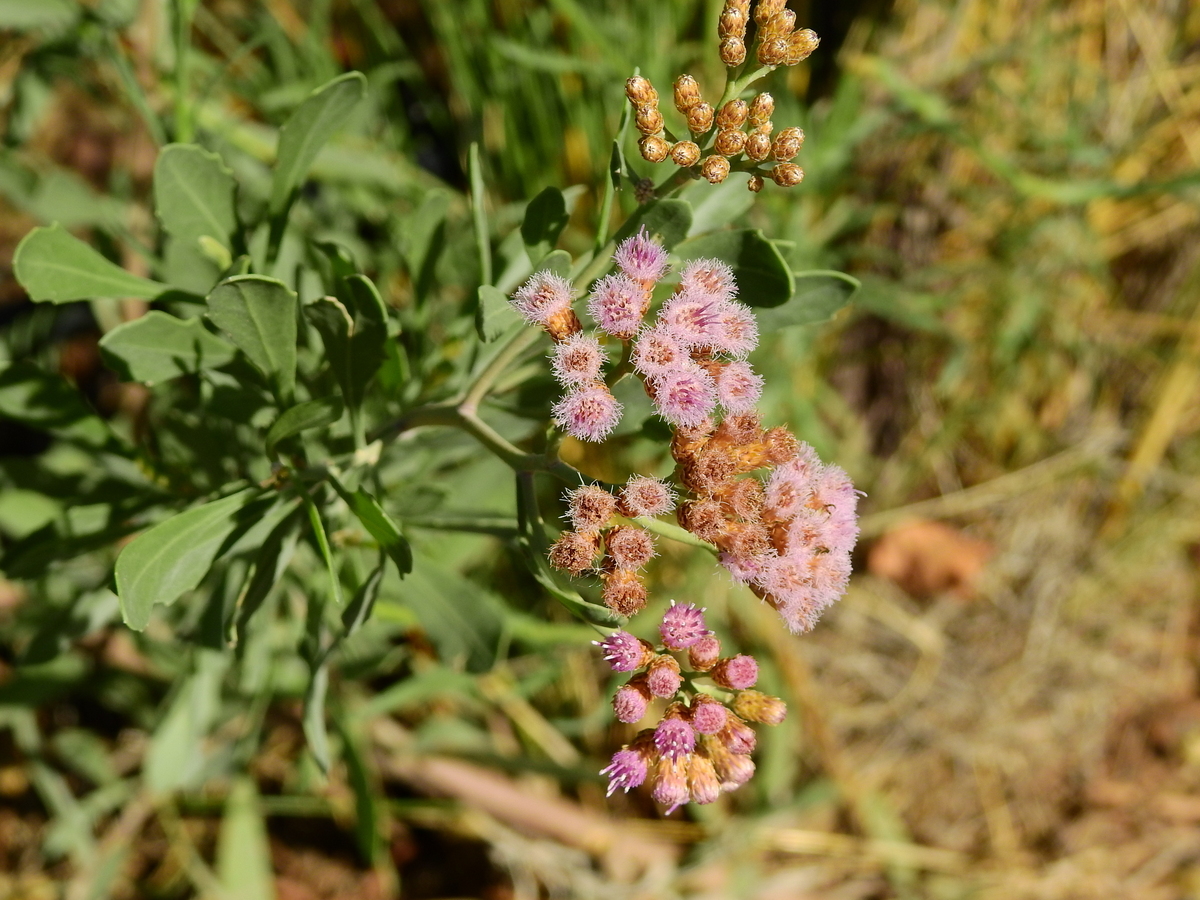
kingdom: Plantae
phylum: Tracheophyta
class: Magnoliopsida
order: Asterales
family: Asteraceae
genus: Tessaria
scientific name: Tessaria absinthioides
